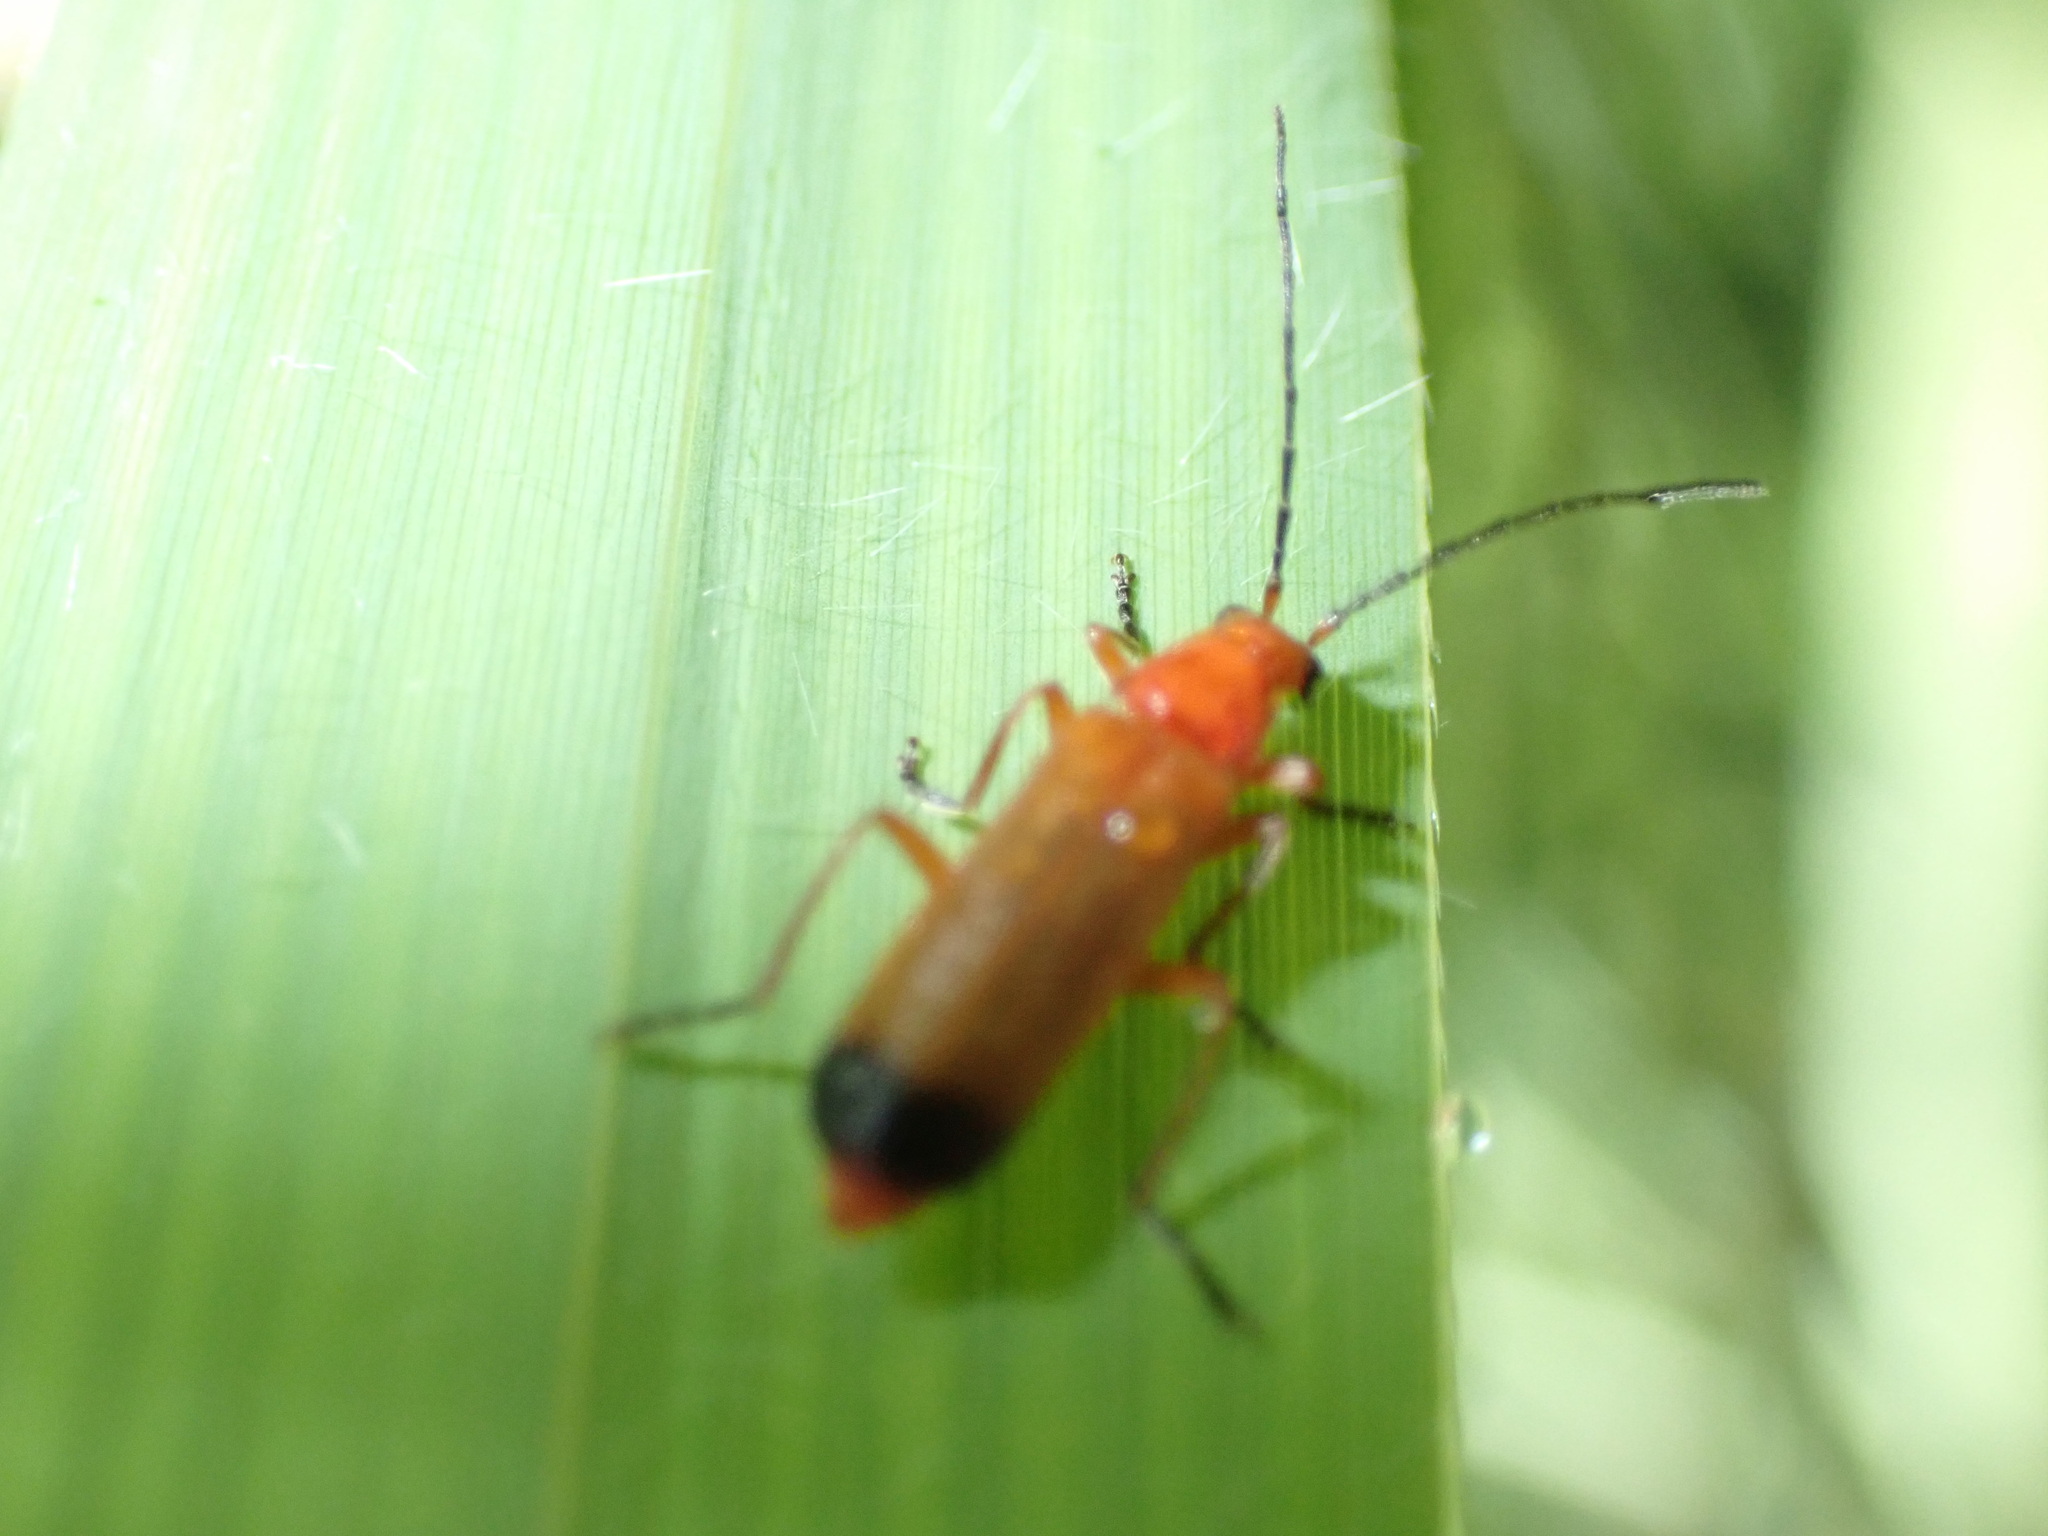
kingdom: Animalia
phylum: Arthropoda
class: Insecta
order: Coleoptera
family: Cantharidae
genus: Rhagonycha
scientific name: Rhagonycha fulva
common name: Common red soldier beetle
